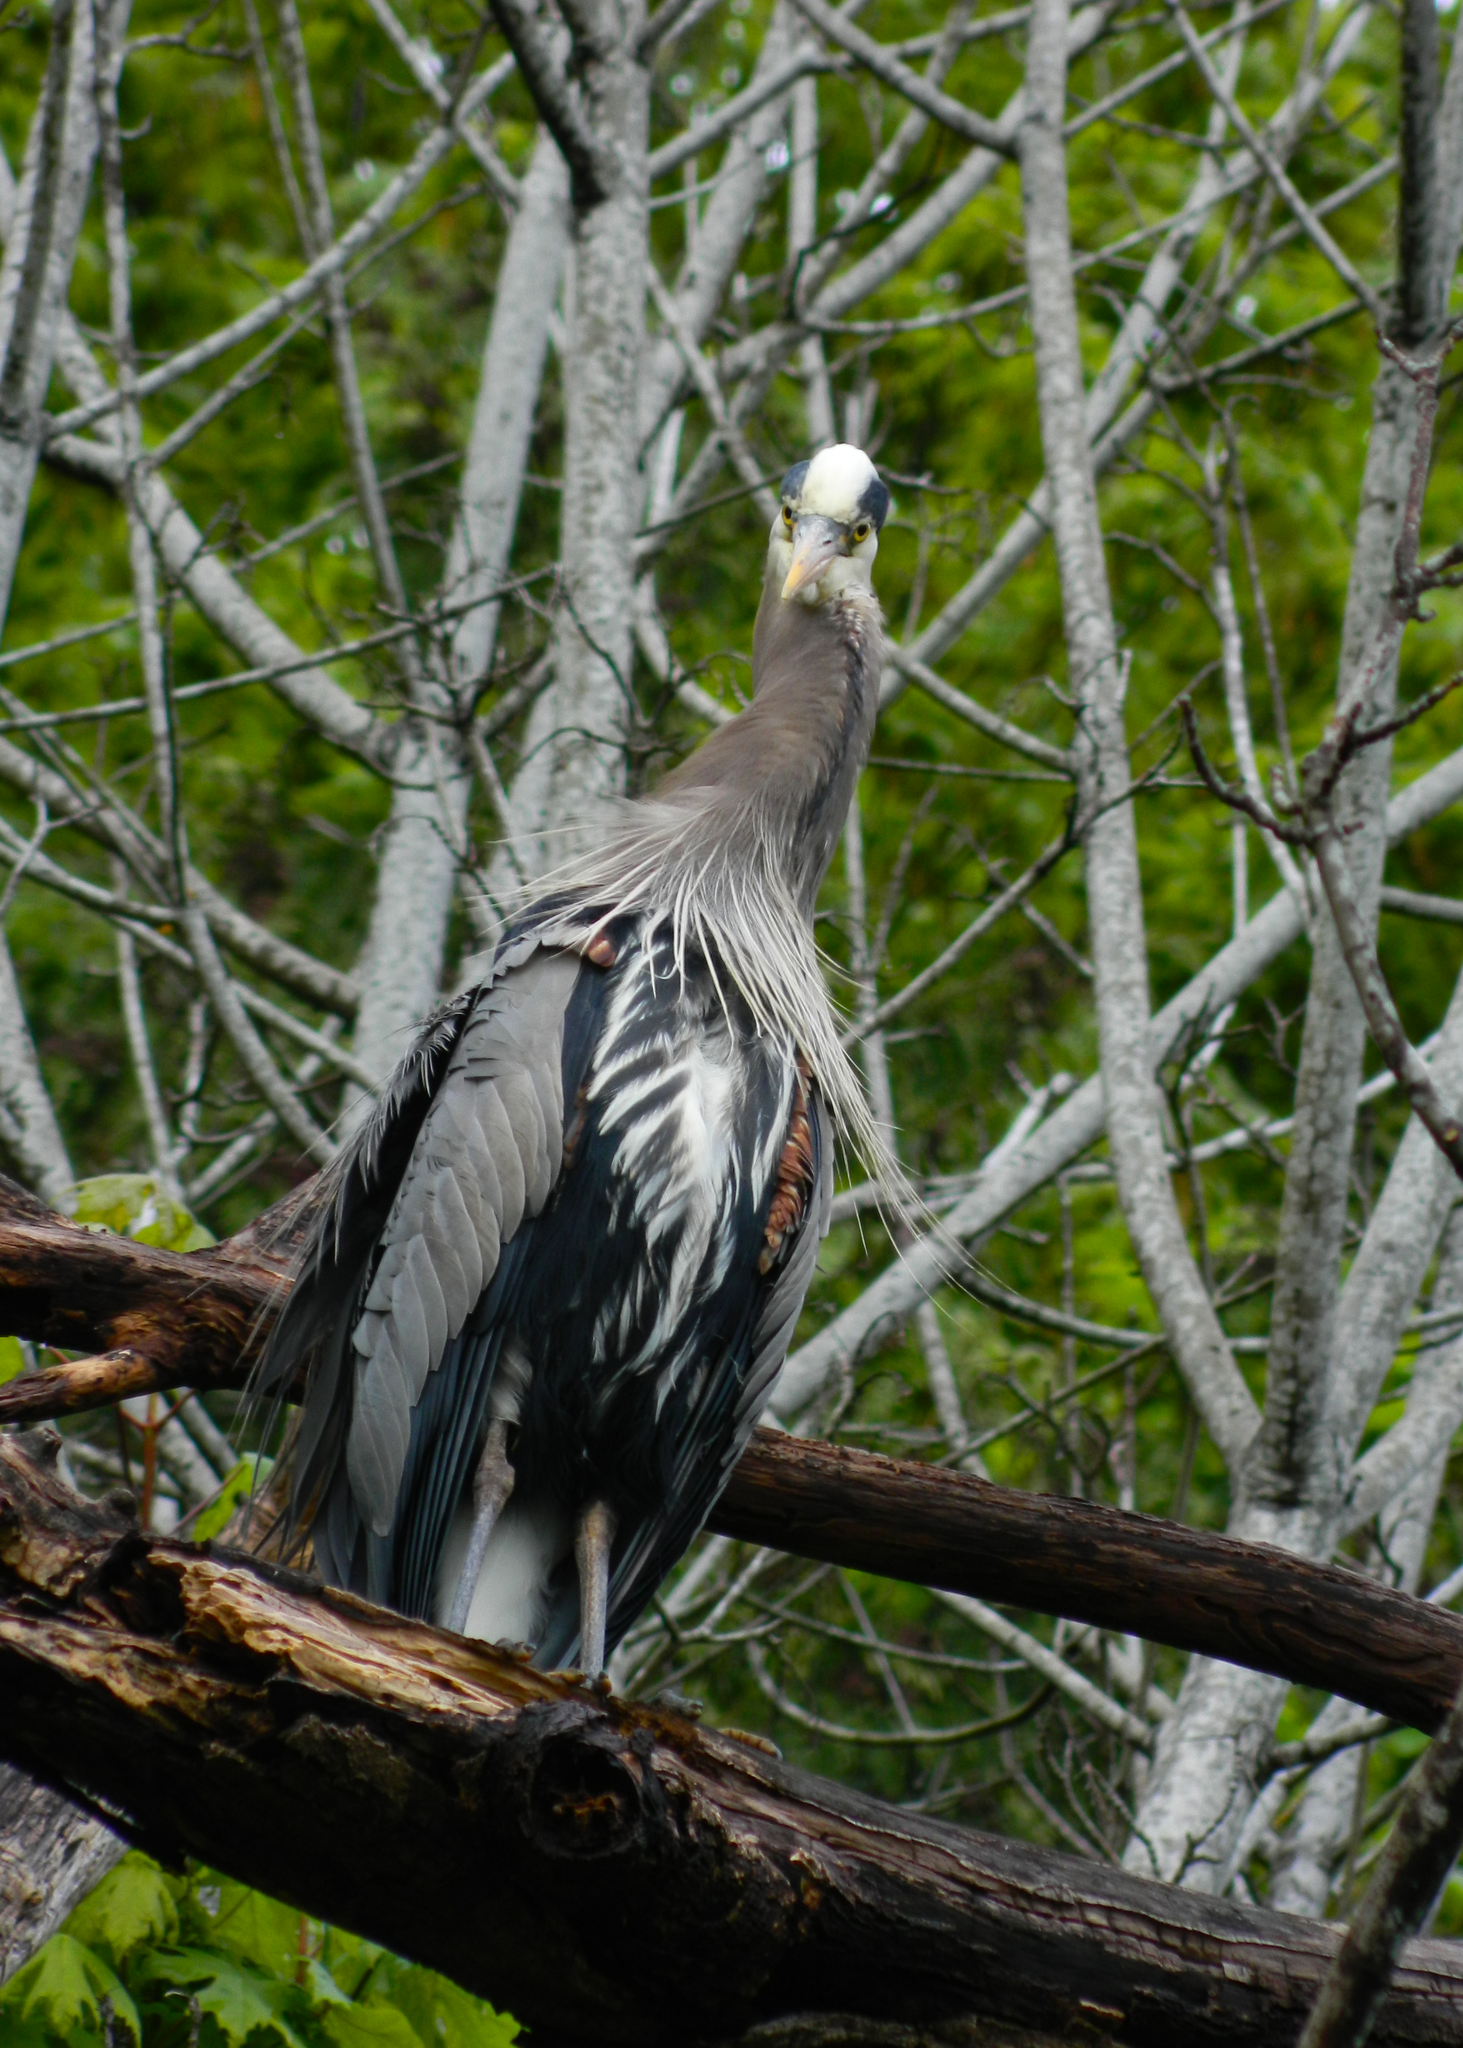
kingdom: Animalia
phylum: Chordata
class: Aves
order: Pelecaniformes
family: Ardeidae
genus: Ardea
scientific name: Ardea herodias
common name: Great blue heron
